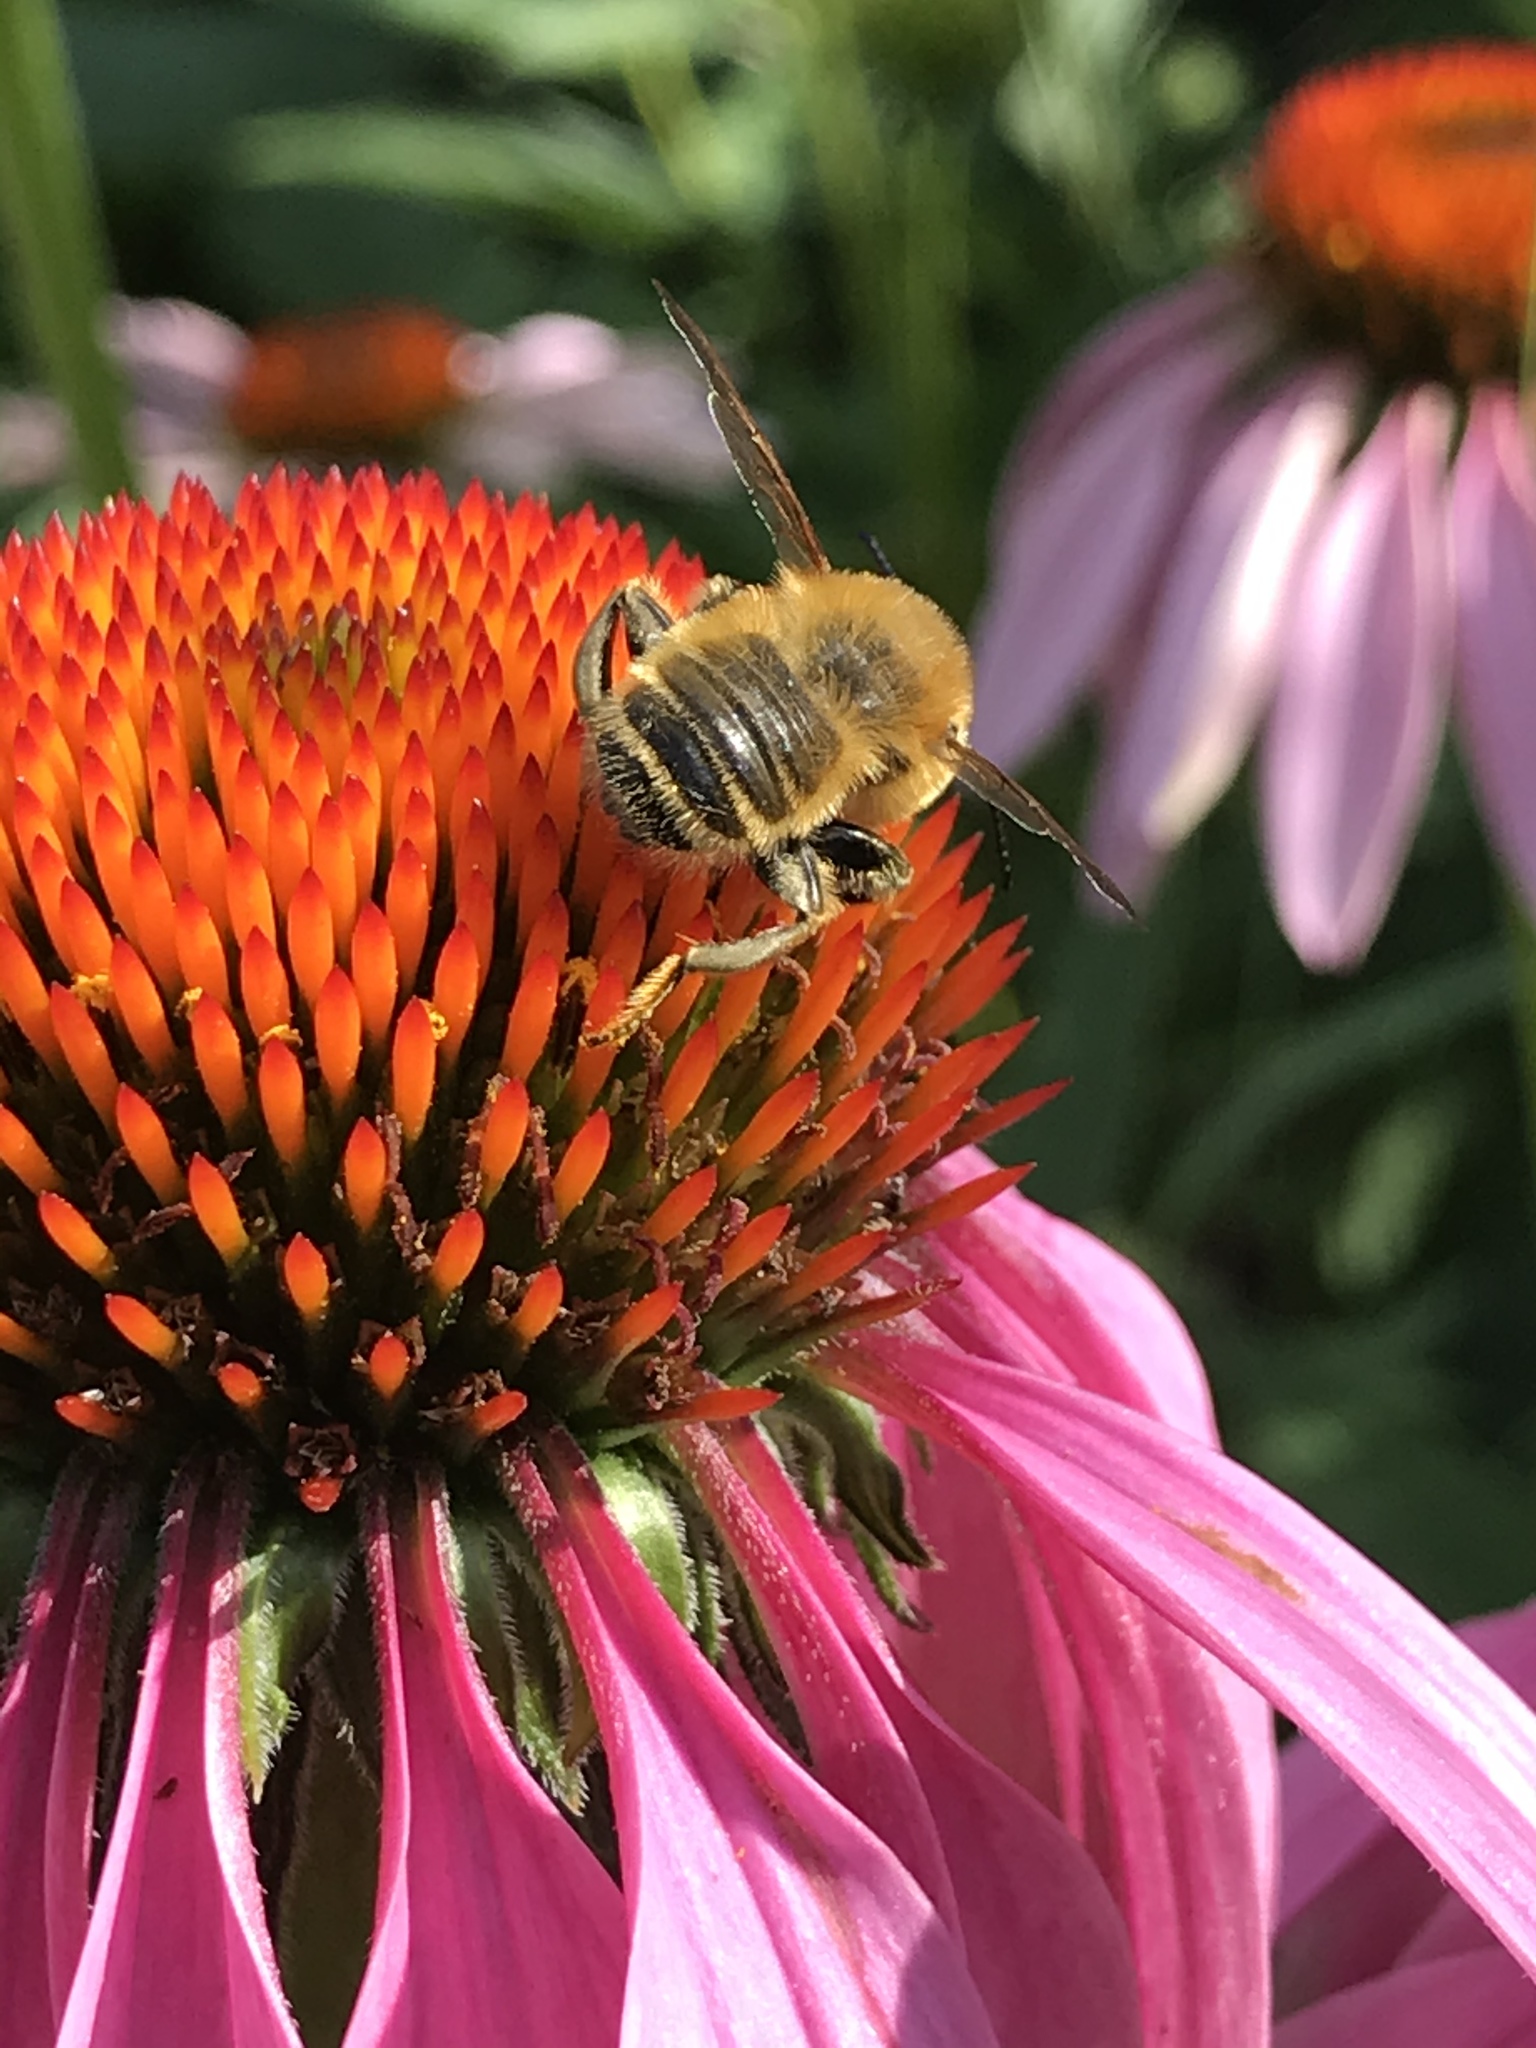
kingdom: Animalia
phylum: Arthropoda
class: Insecta
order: Hymenoptera
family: Megachilidae
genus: Megachile
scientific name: Megachile latimanus
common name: Leafcutting bee
